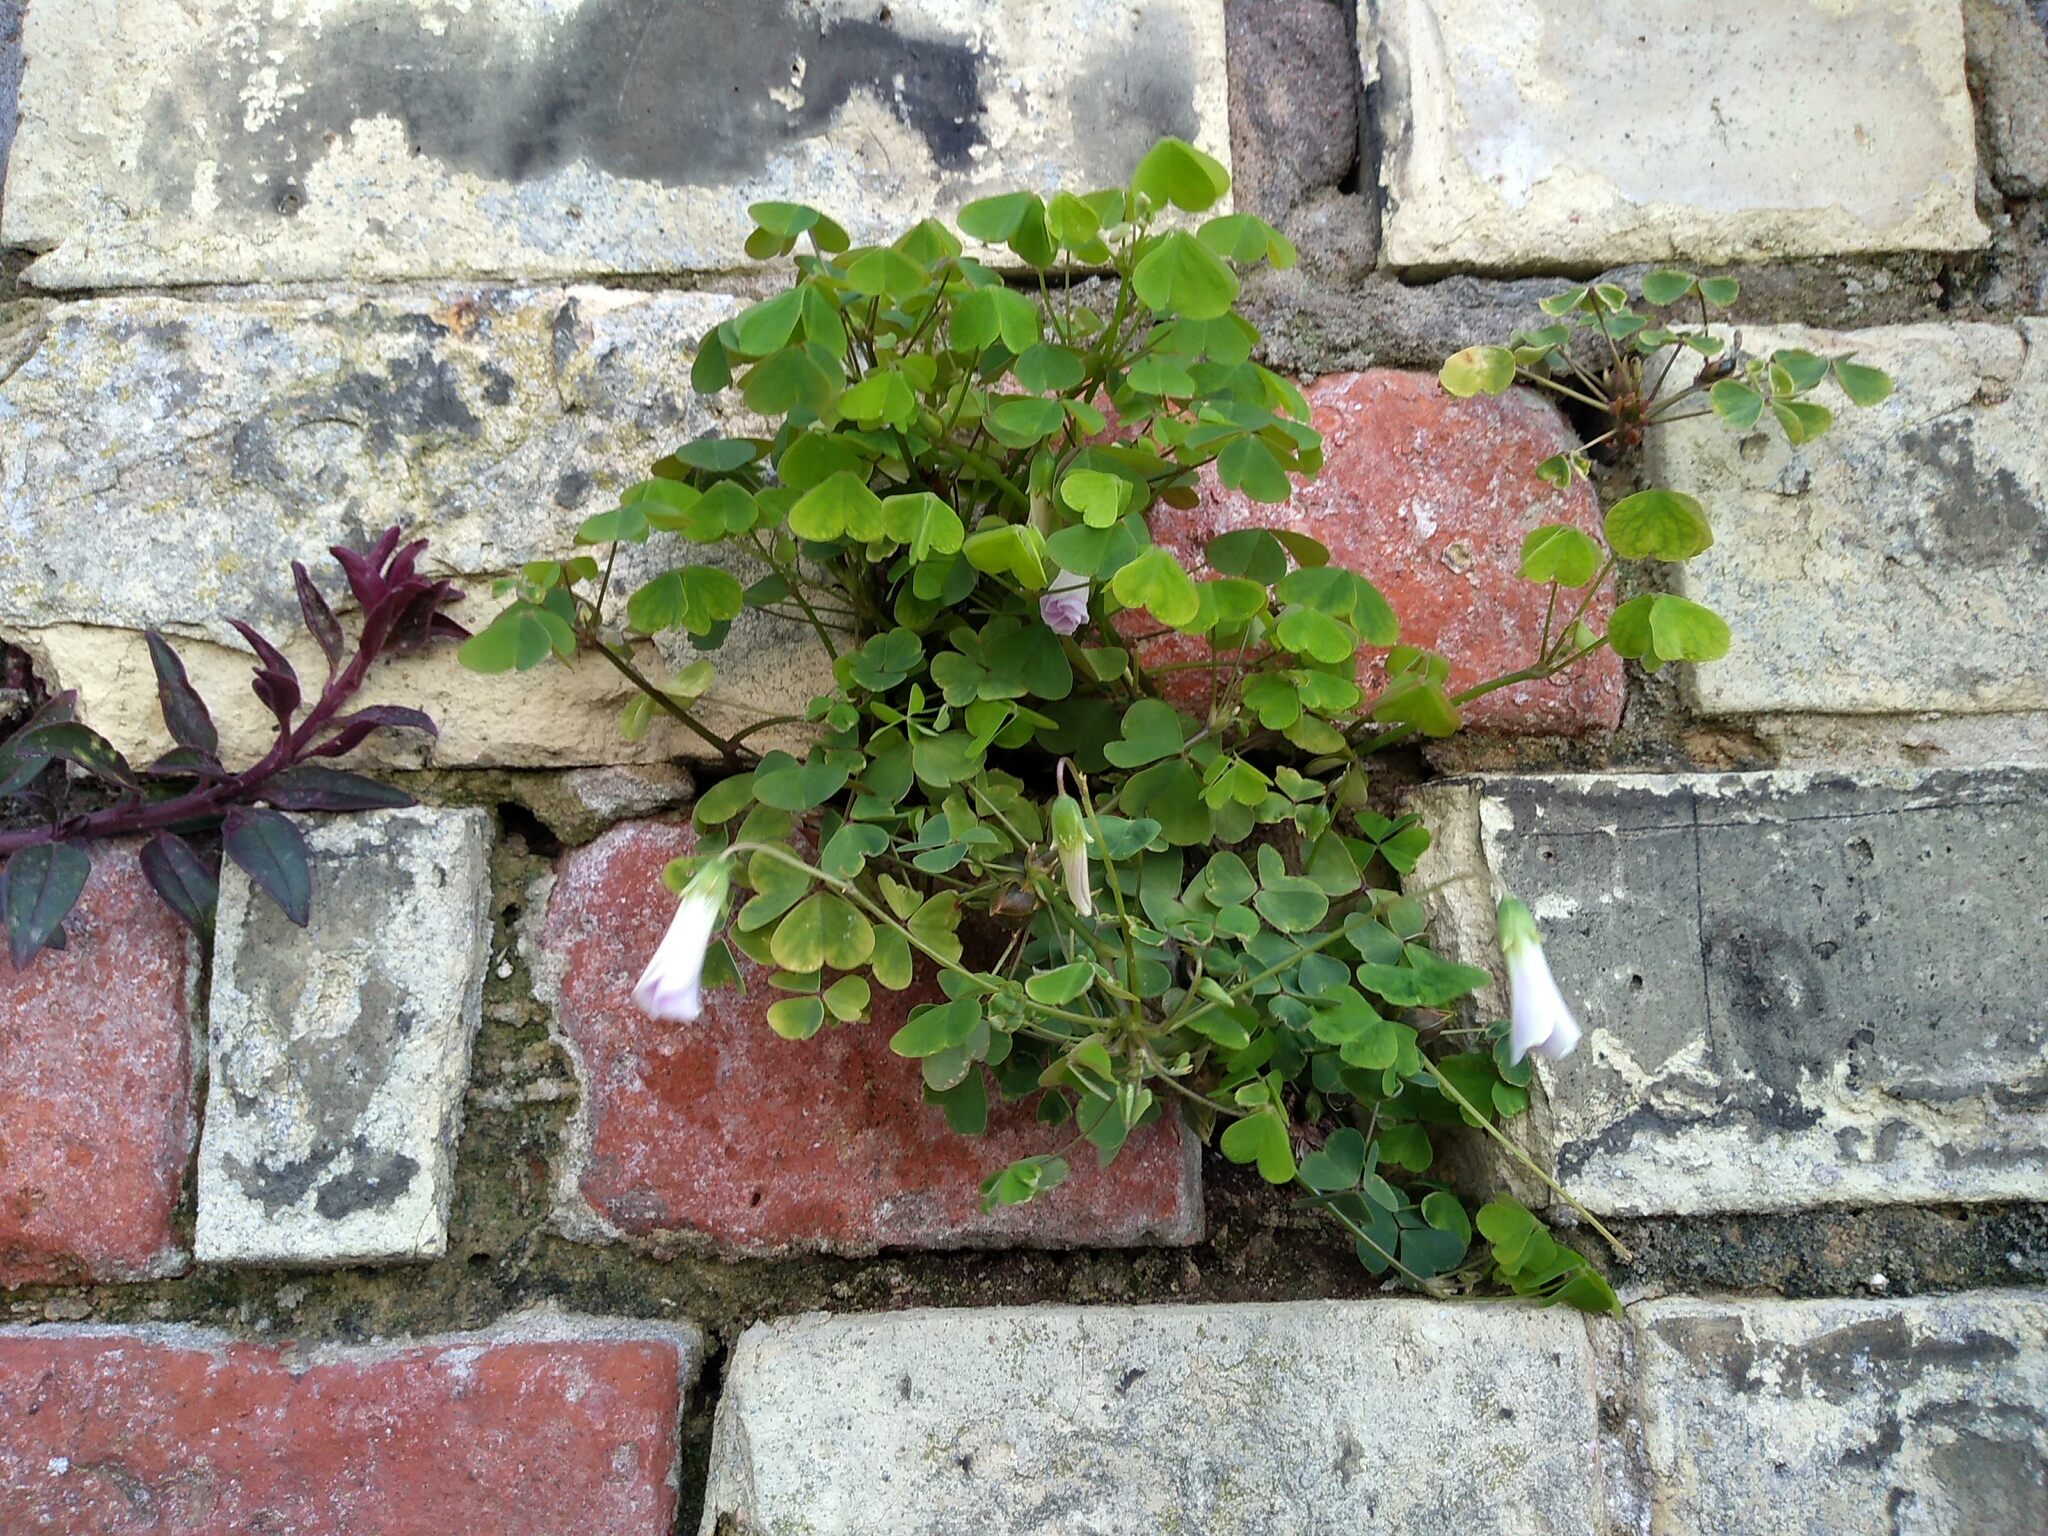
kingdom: Plantae
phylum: Tracheophyta
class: Magnoliopsida
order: Oxalidales
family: Oxalidaceae
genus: Oxalis
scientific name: Oxalis incarnata
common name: Pale pink-sorrel
